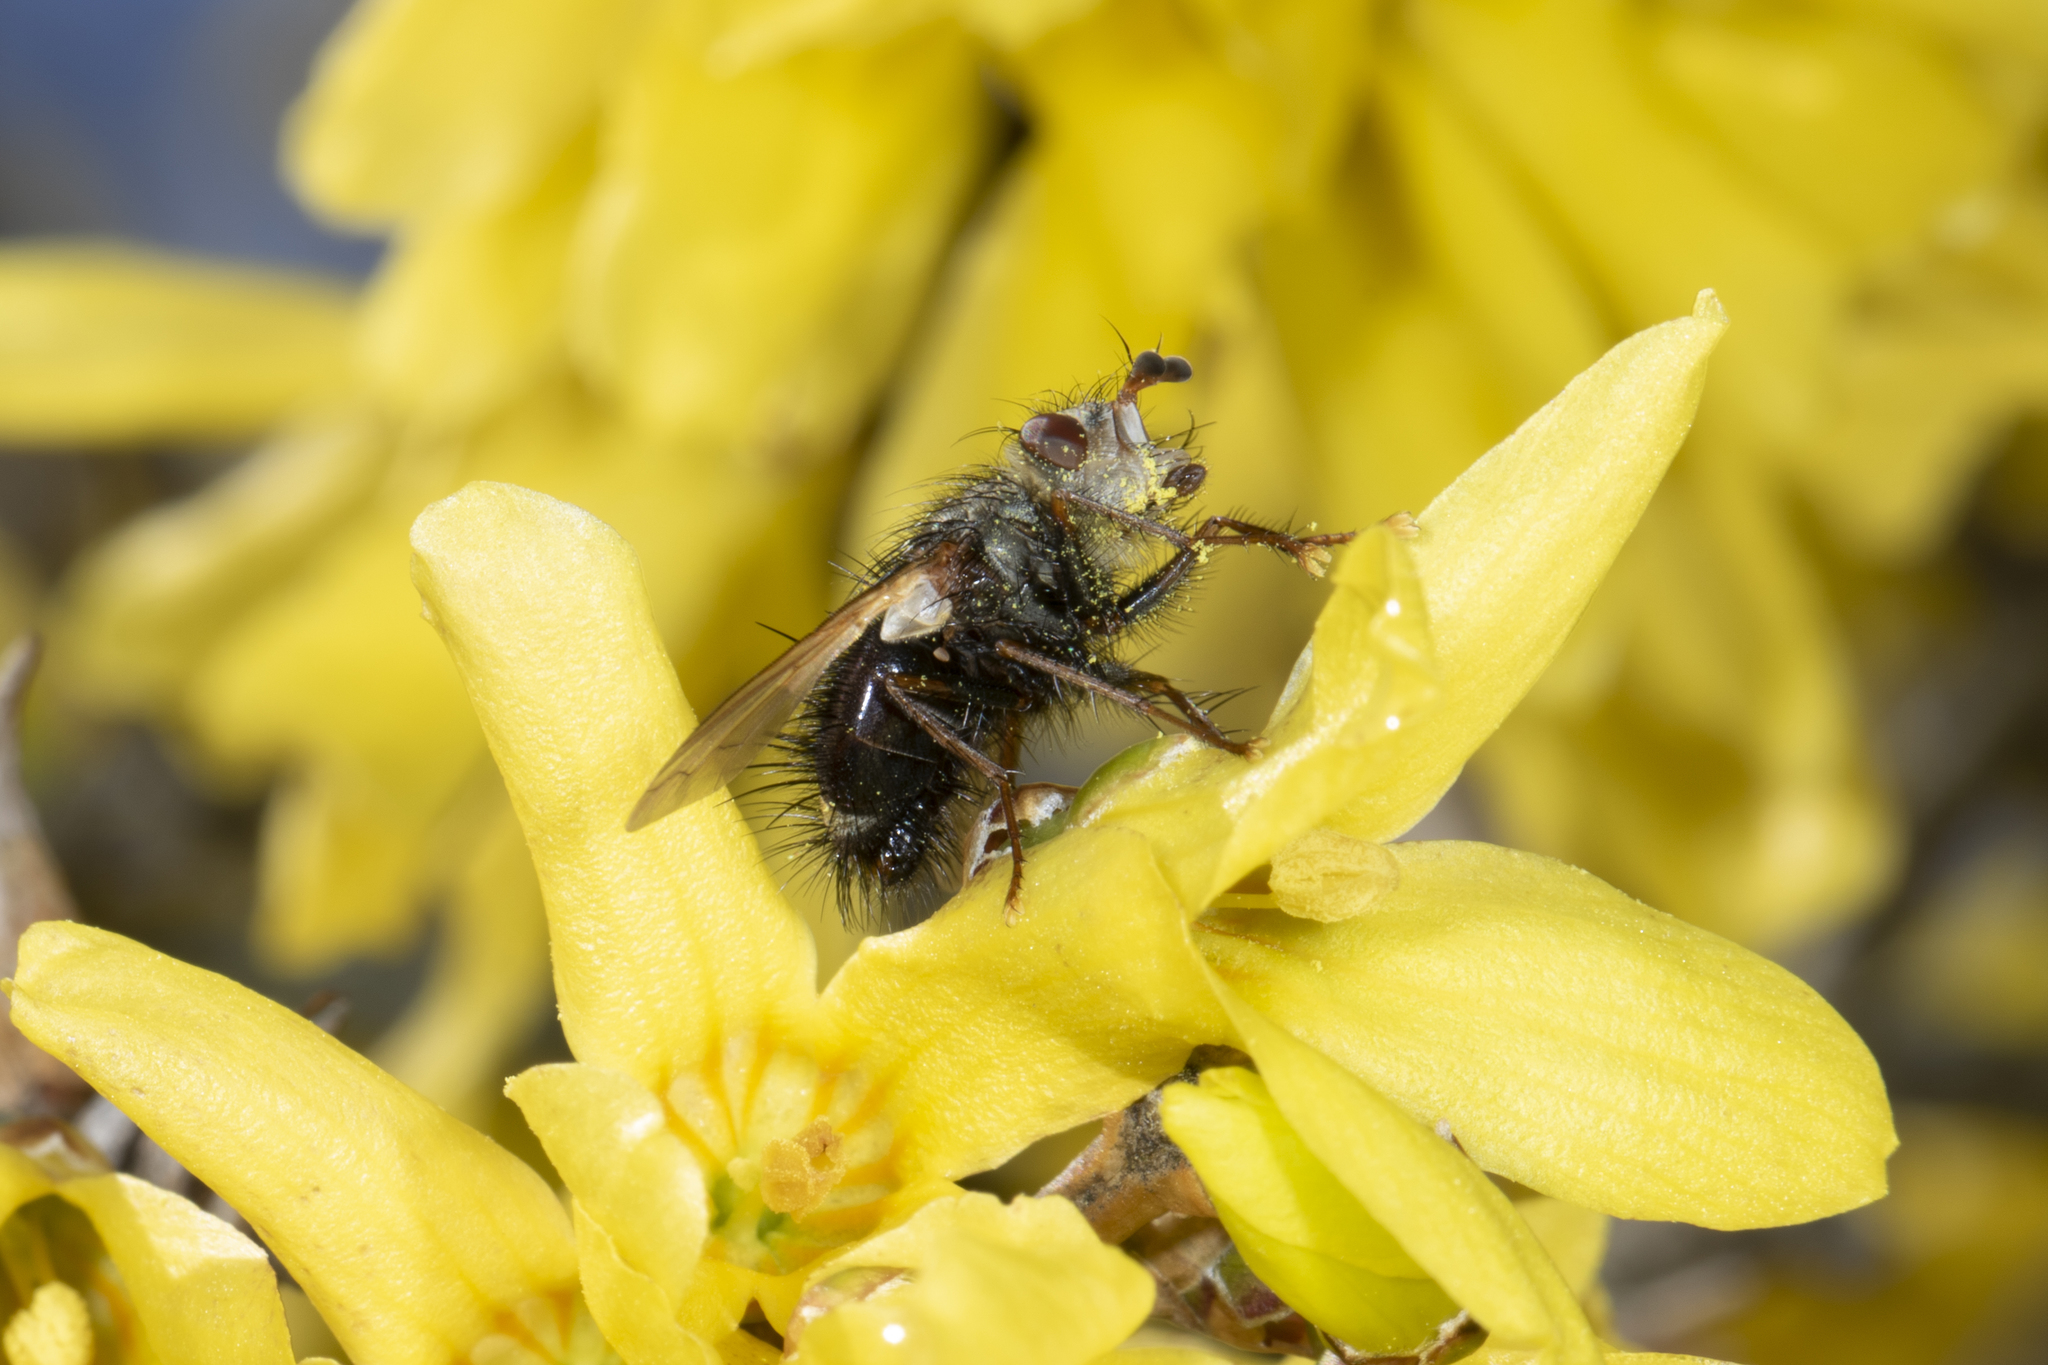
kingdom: Animalia
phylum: Arthropoda
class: Insecta
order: Diptera
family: Tachinidae
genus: Epalpus
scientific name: Epalpus signifer
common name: Early tachinid fly
